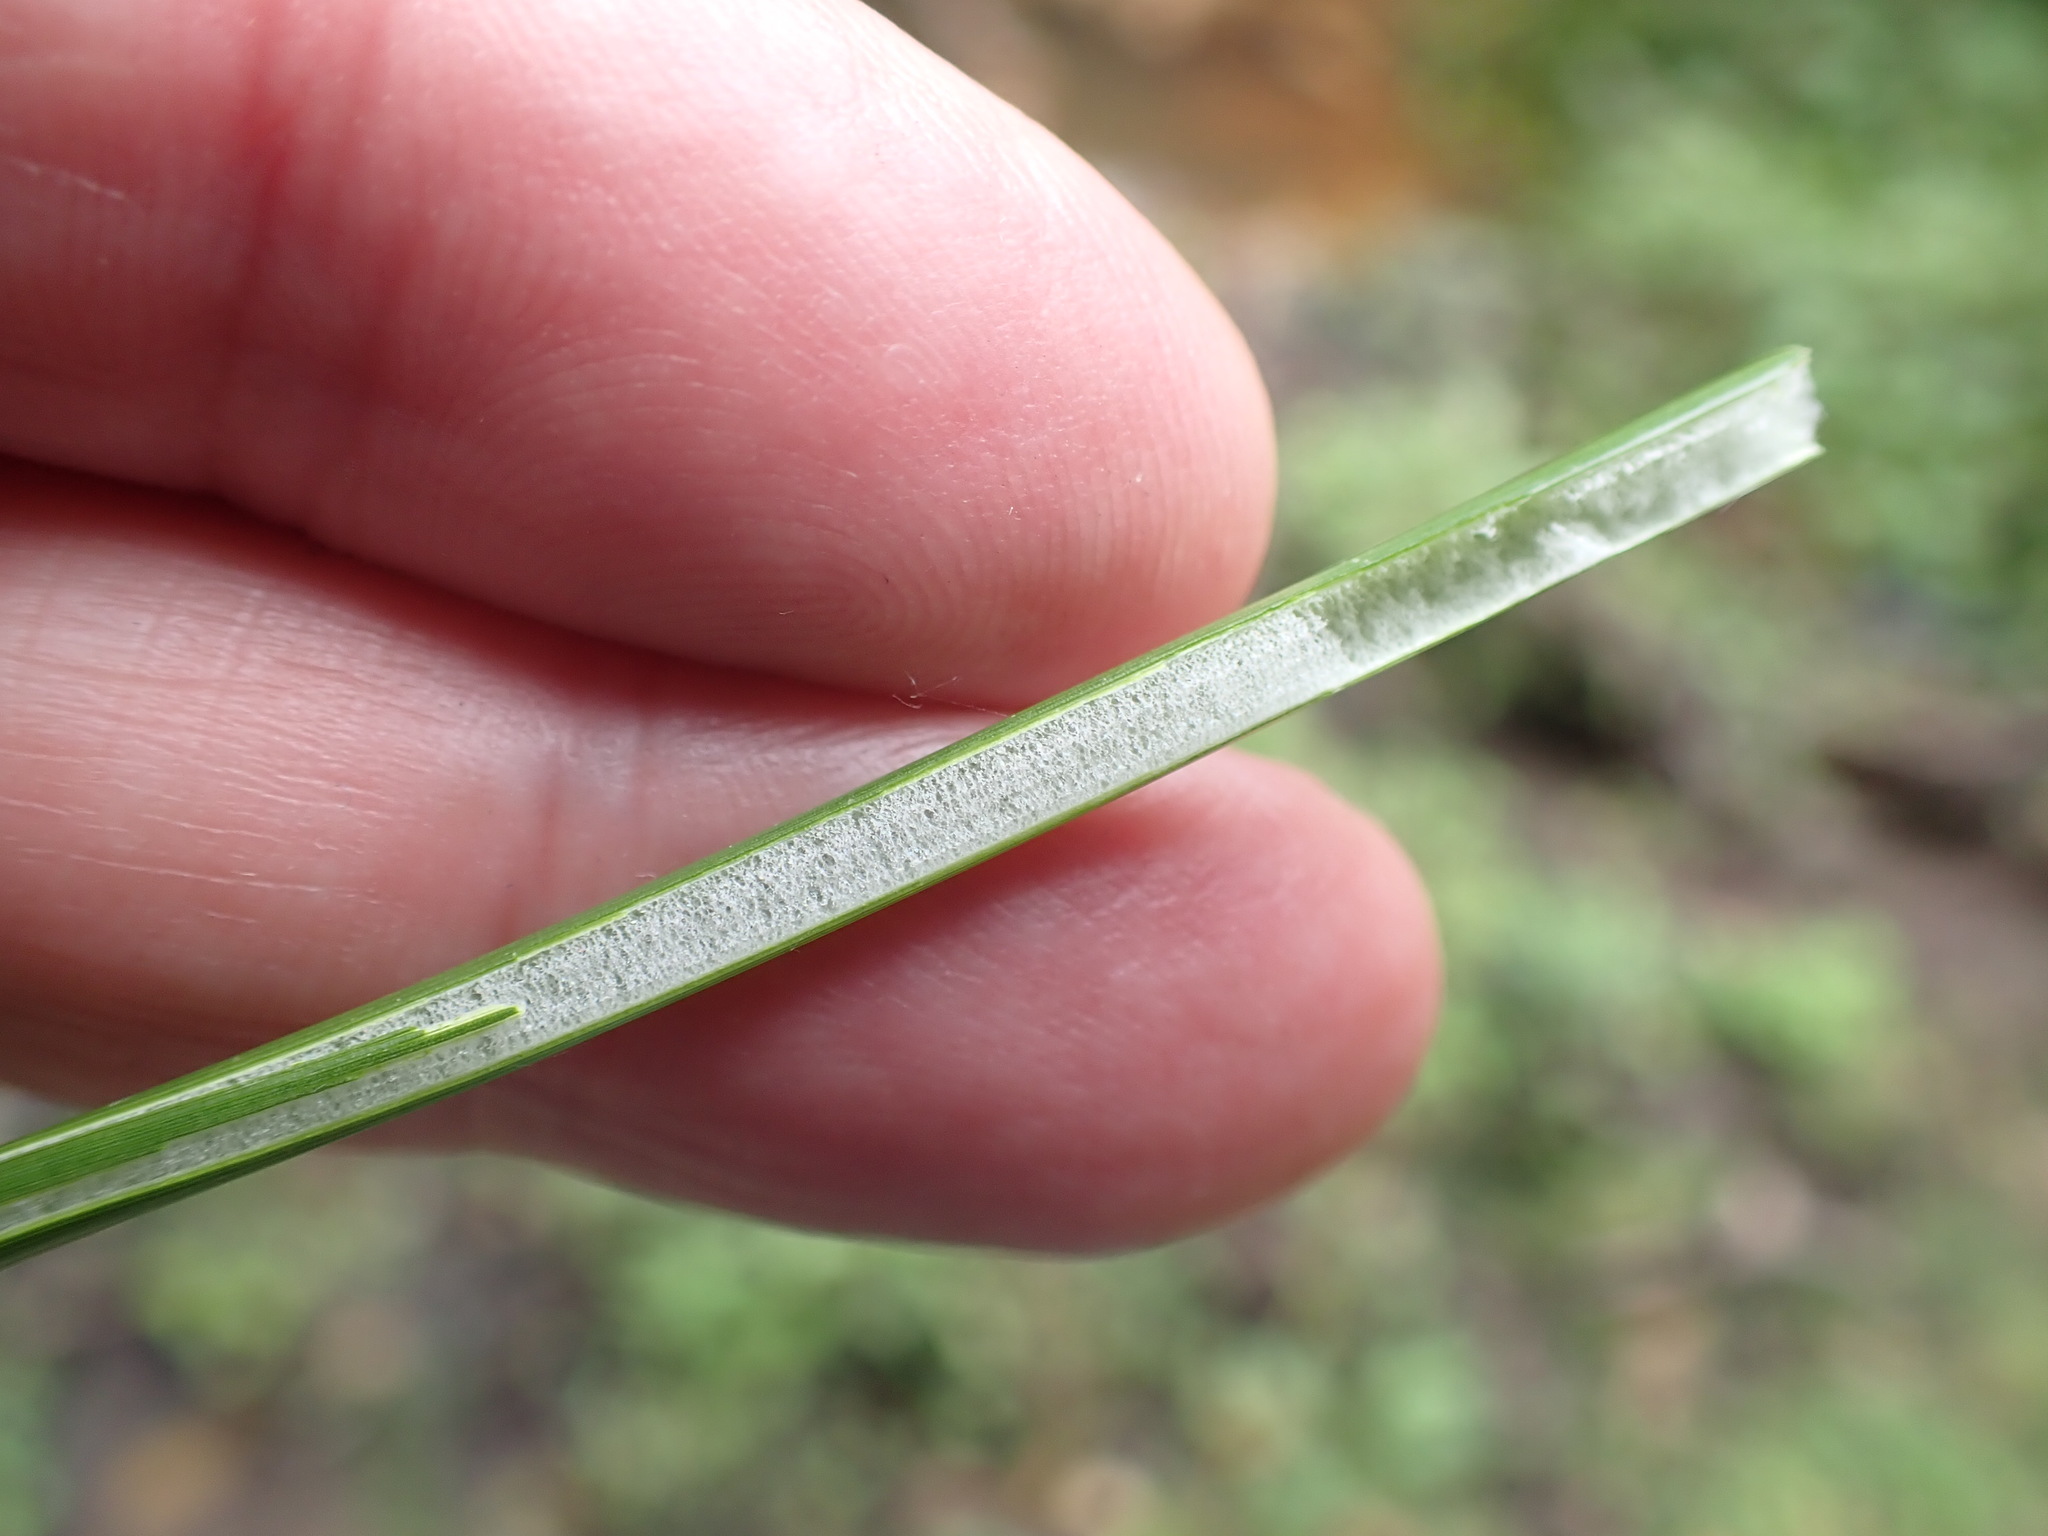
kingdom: Plantae
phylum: Tracheophyta
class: Liliopsida
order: Poales
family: Juncaceae
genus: Juncus
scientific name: Juncus effusus
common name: Soft rush
